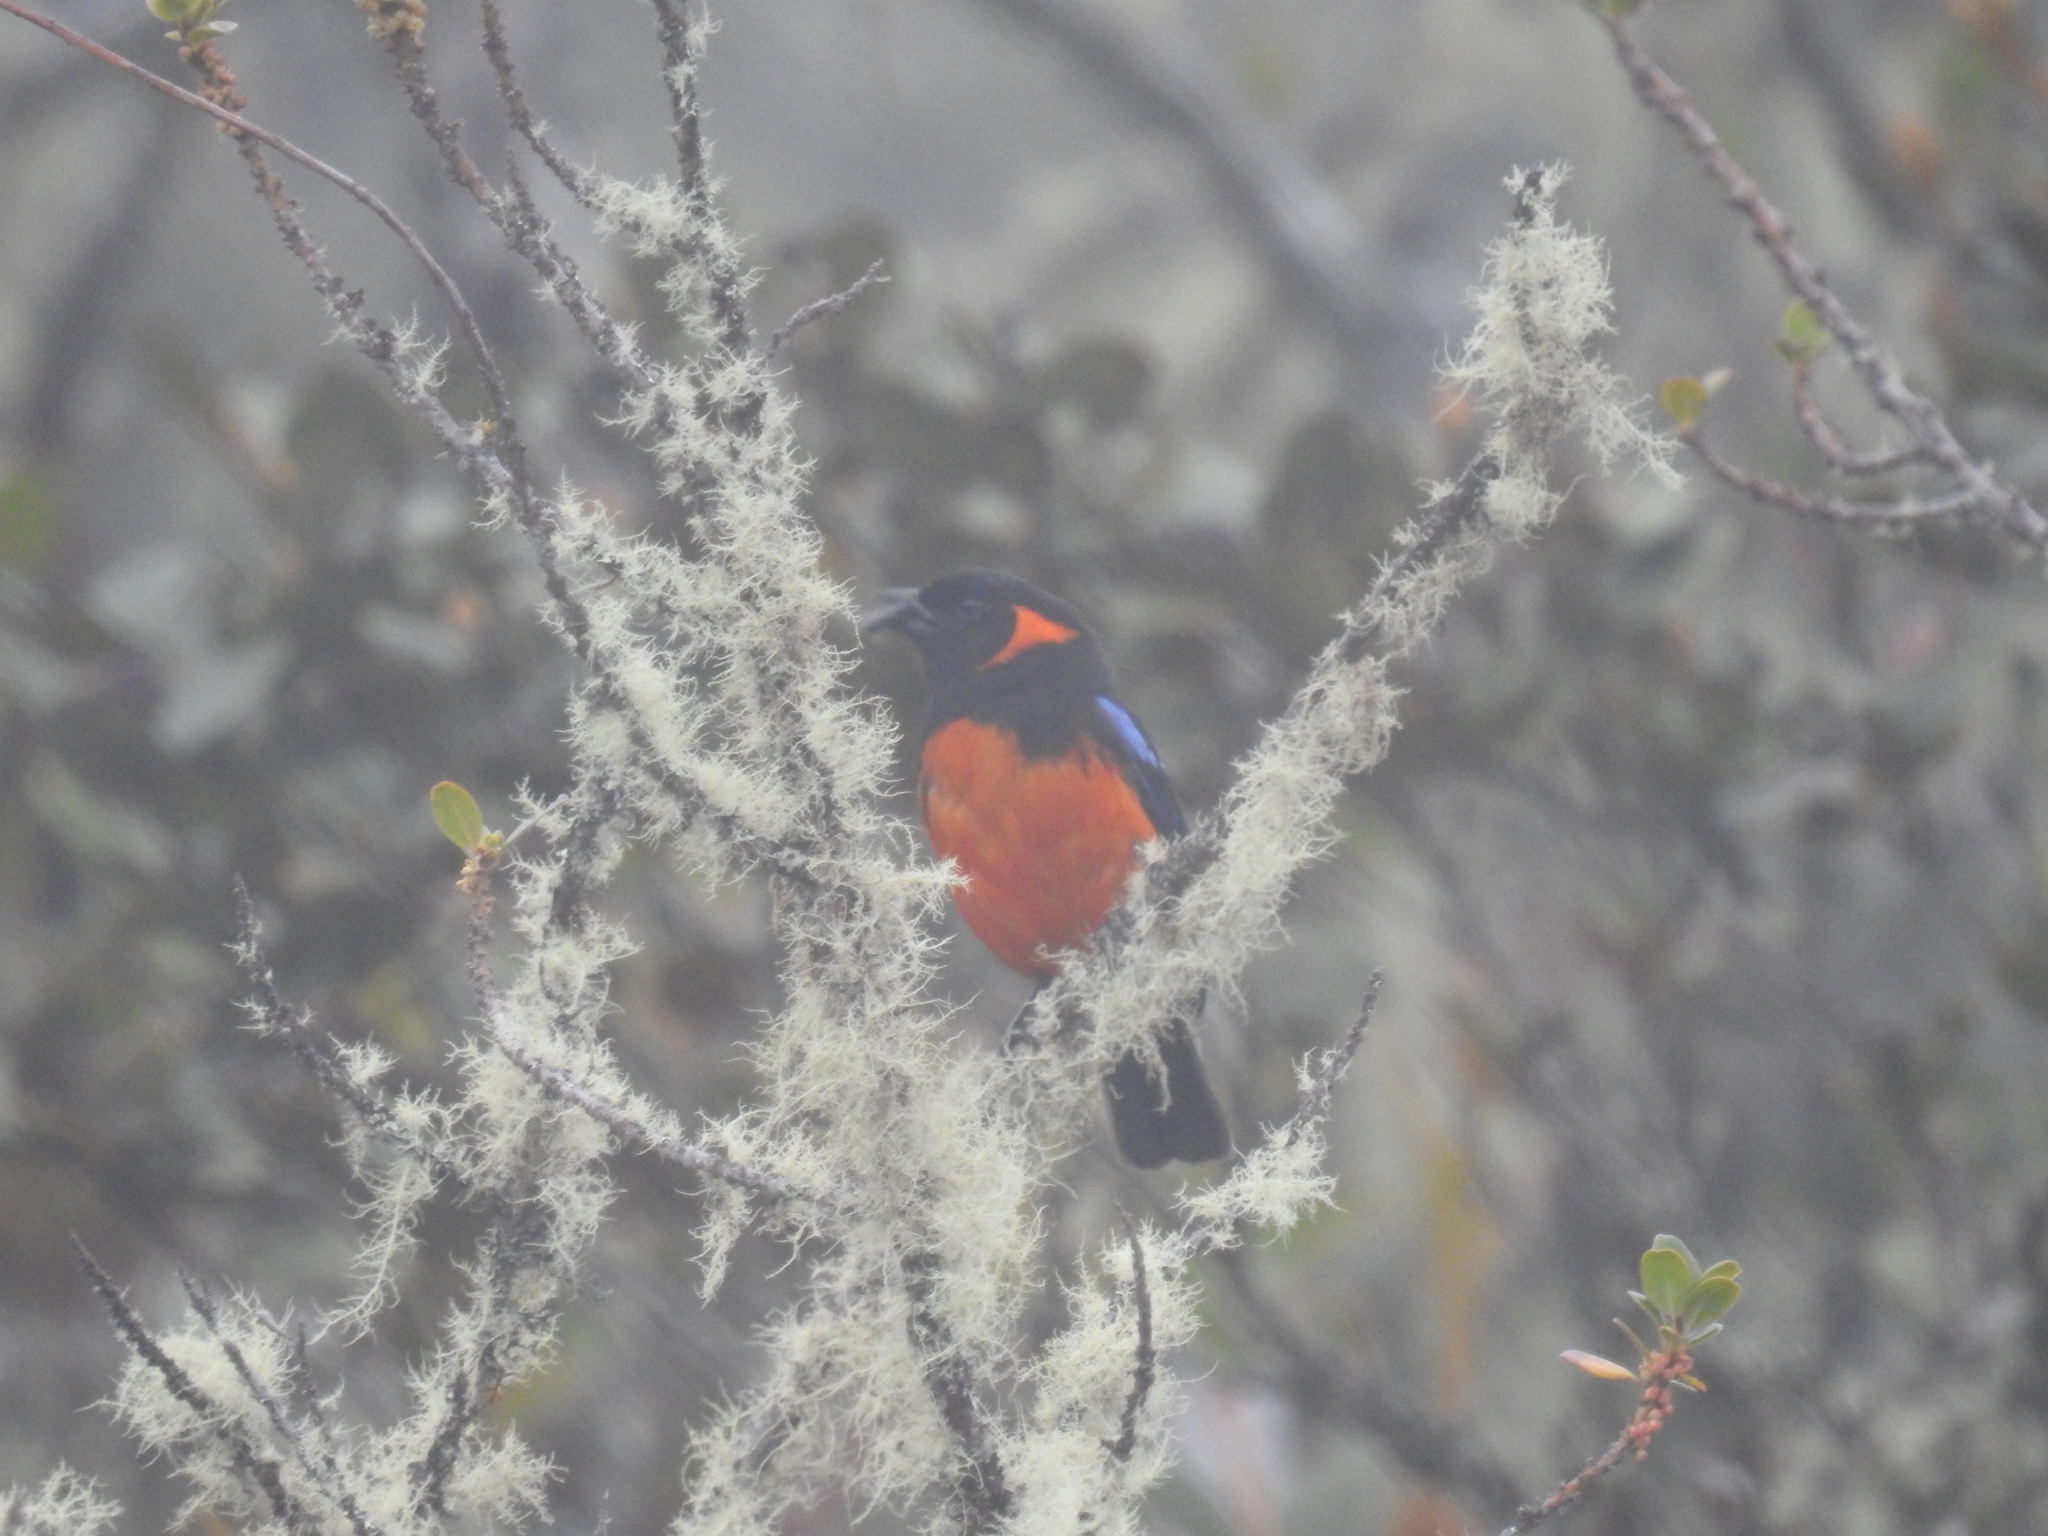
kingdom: Animalia
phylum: Chordata
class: Aves
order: Passeriformes
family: Thraupidae
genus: Anisognathus
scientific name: Anisognathus igniventris
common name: Scarlet-bellied mountain tanager
